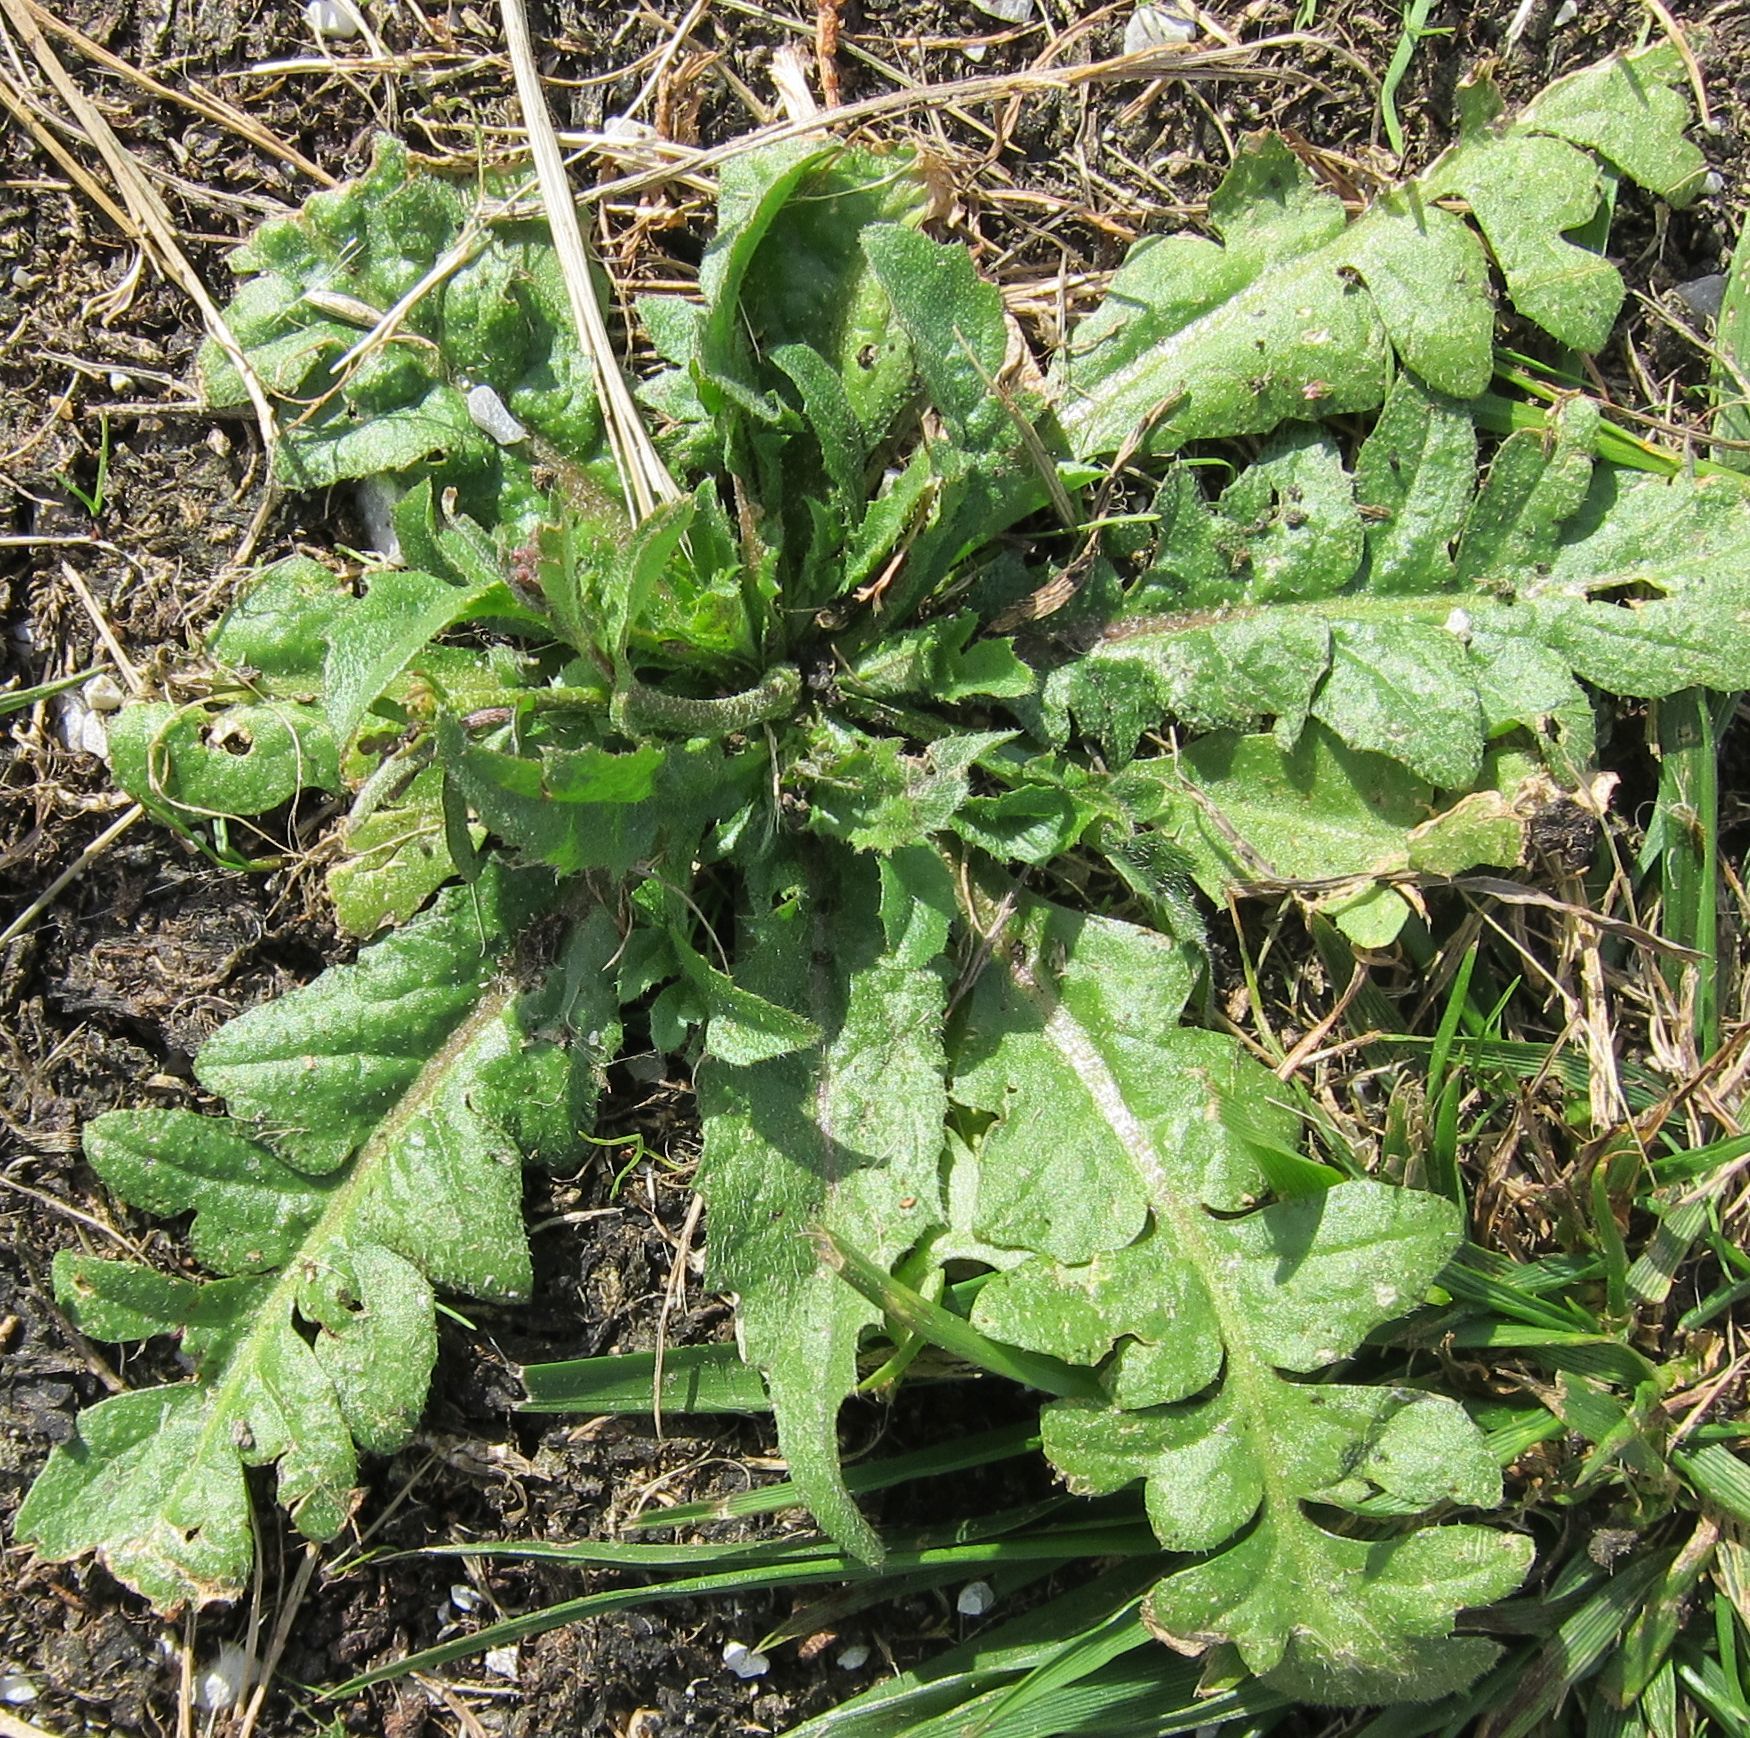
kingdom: Plantae
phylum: Tracheophyta
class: Magnoliopsida
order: Brassicales
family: Brassicaceae
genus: Capsella
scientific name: Capsella bursa-pastoris
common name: Shepherd's purse
